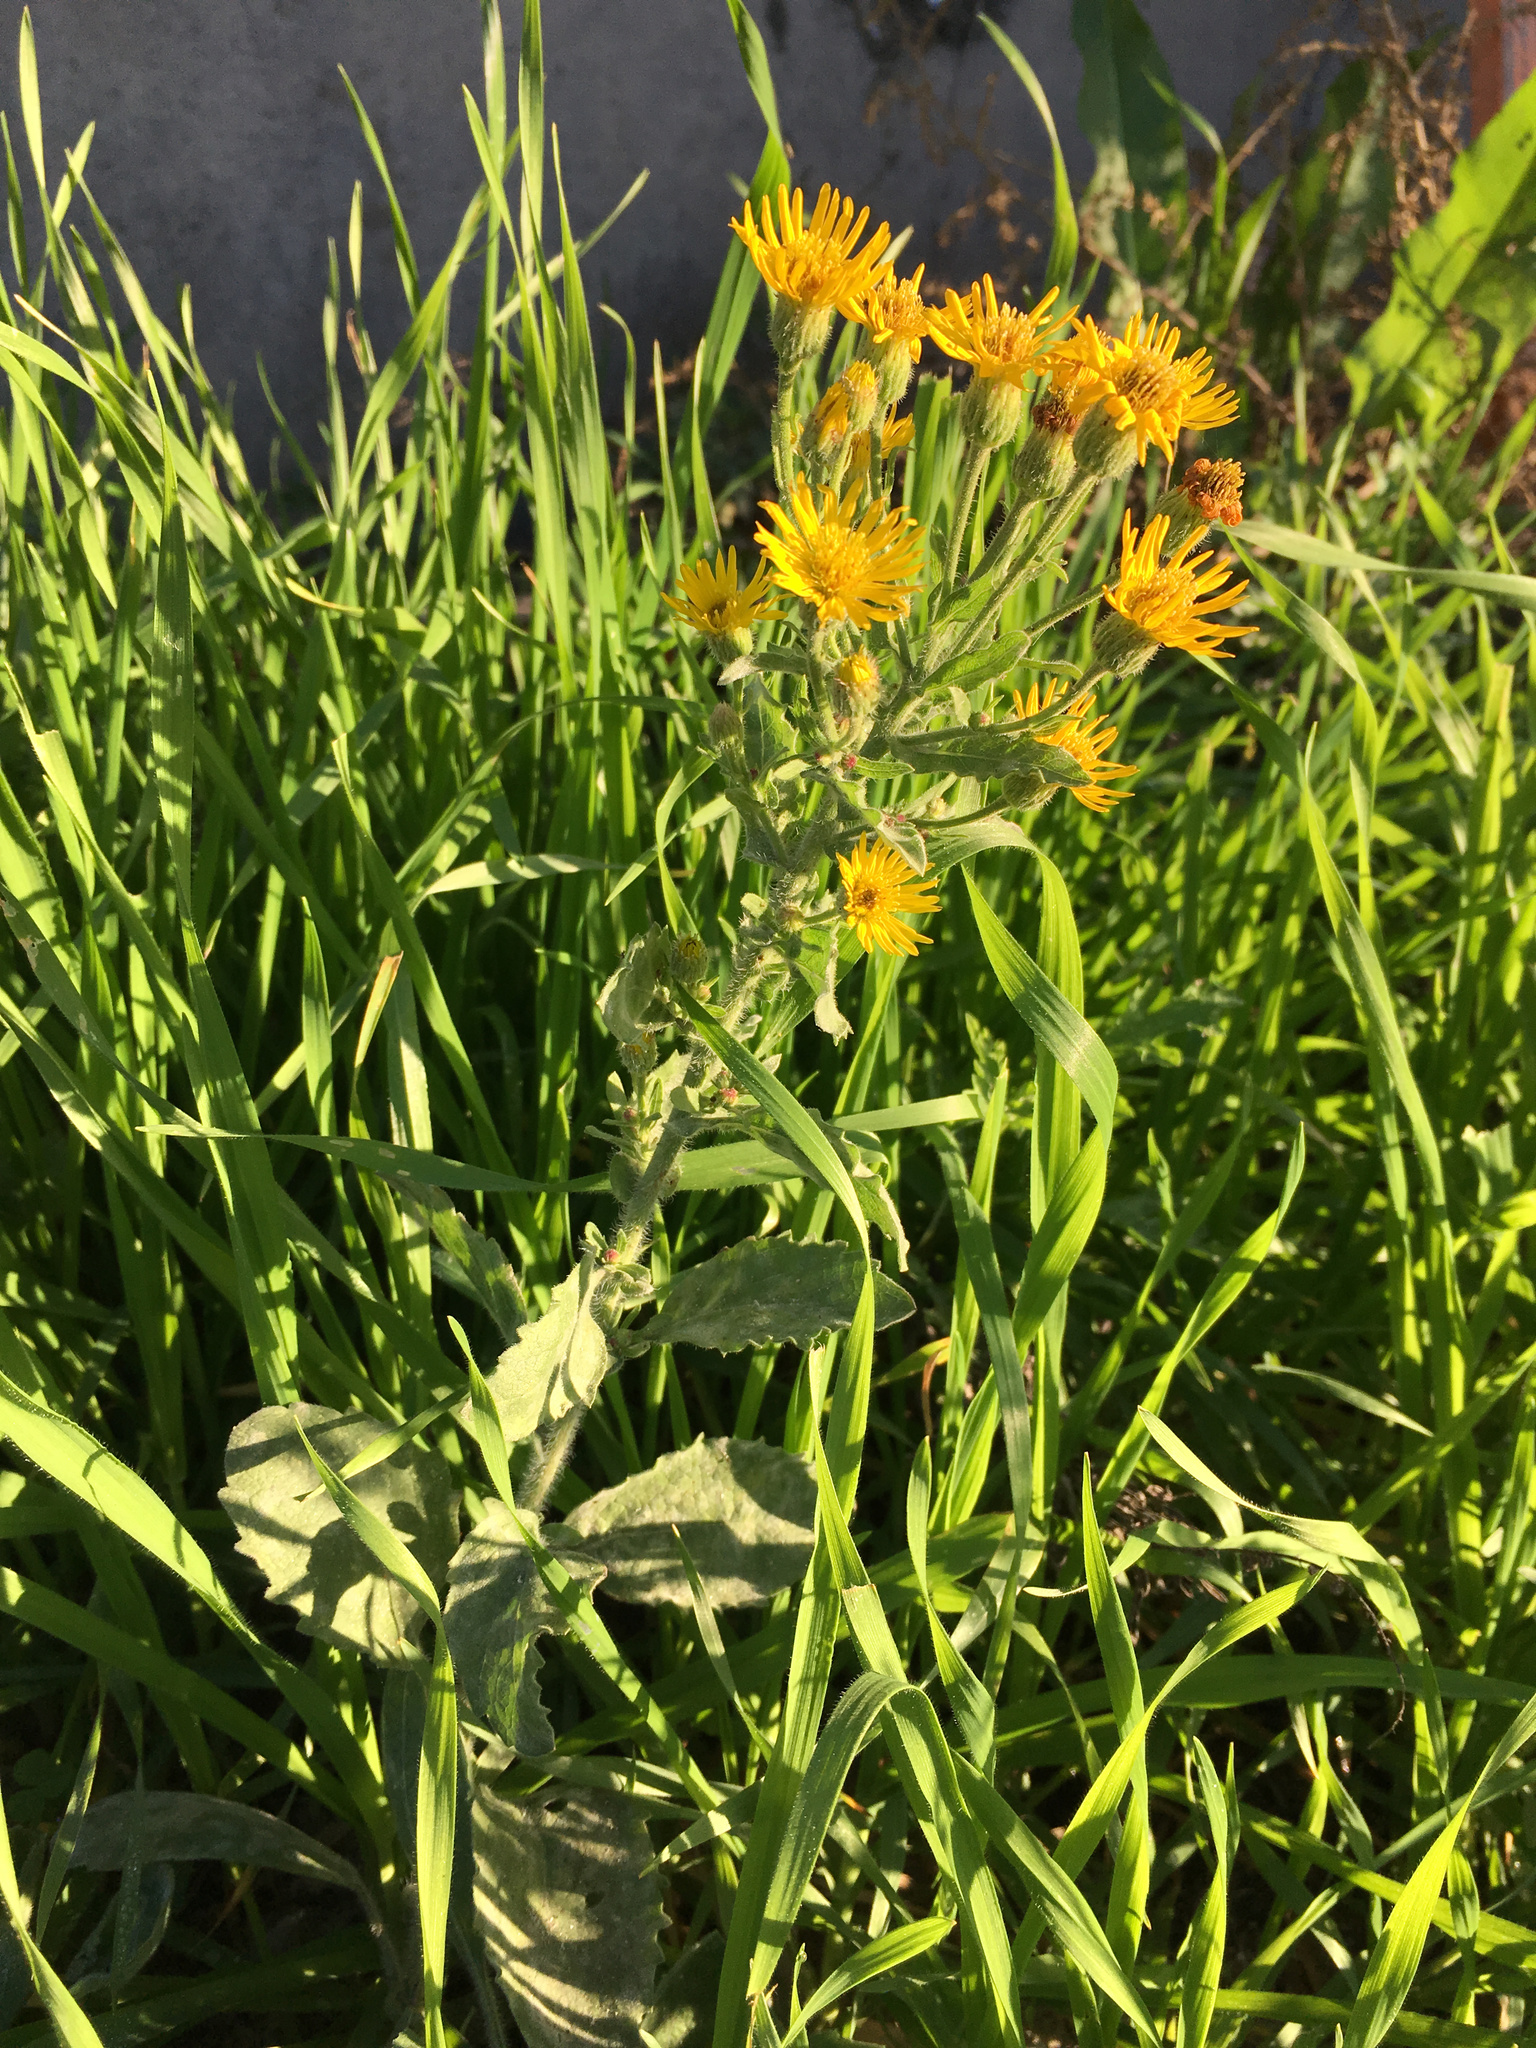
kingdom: Plantae
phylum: Tracheophyta
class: Magnoliopsida
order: Asterales
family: Asteraceae
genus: Isocoma
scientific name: Isocoma menziesii
